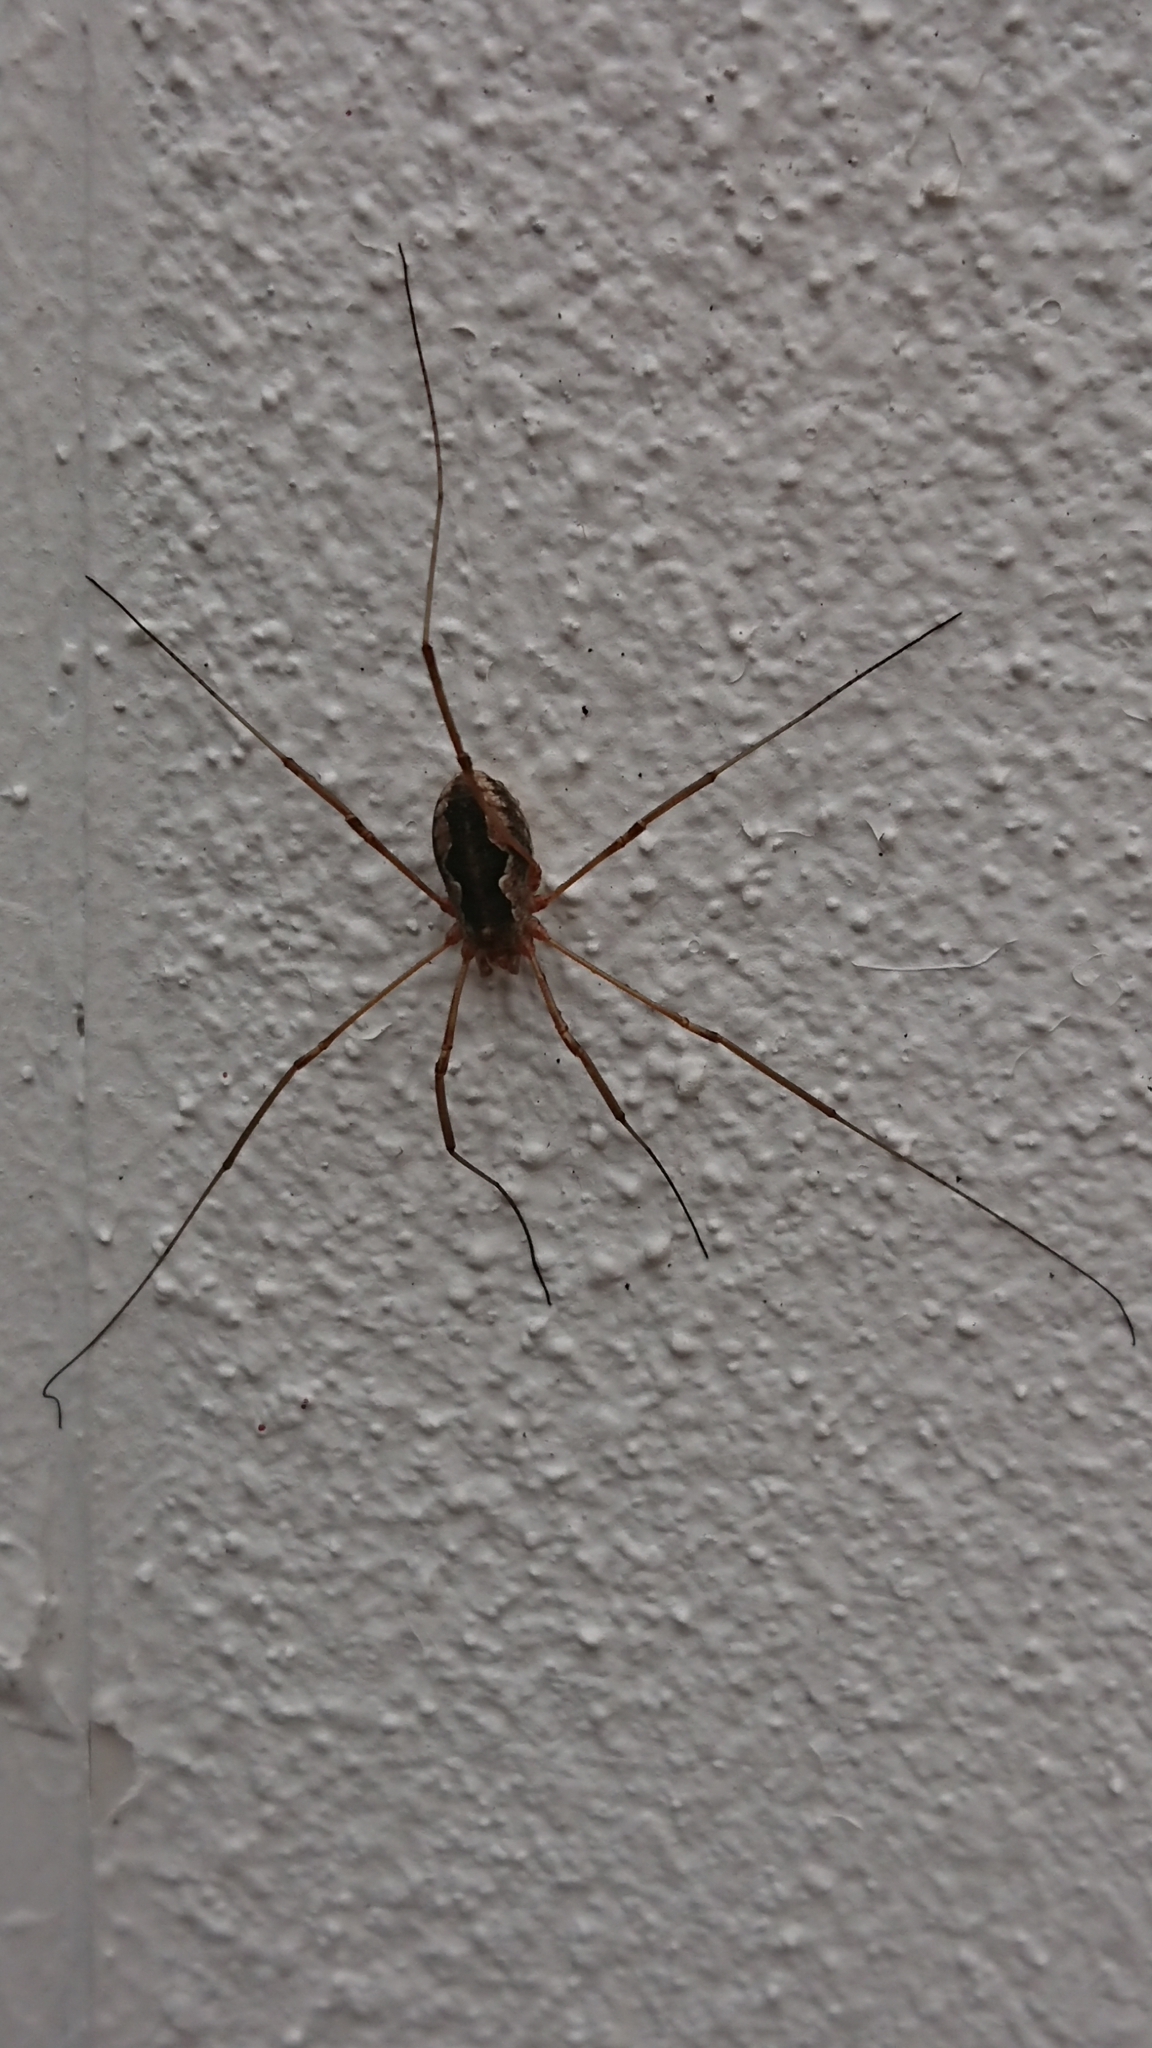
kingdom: Animalia
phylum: Arthropoda
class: Arachnida
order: Opiliones
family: Phalangiidae
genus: Phalangium
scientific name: Phalangium opilio
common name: Daddy longleg
